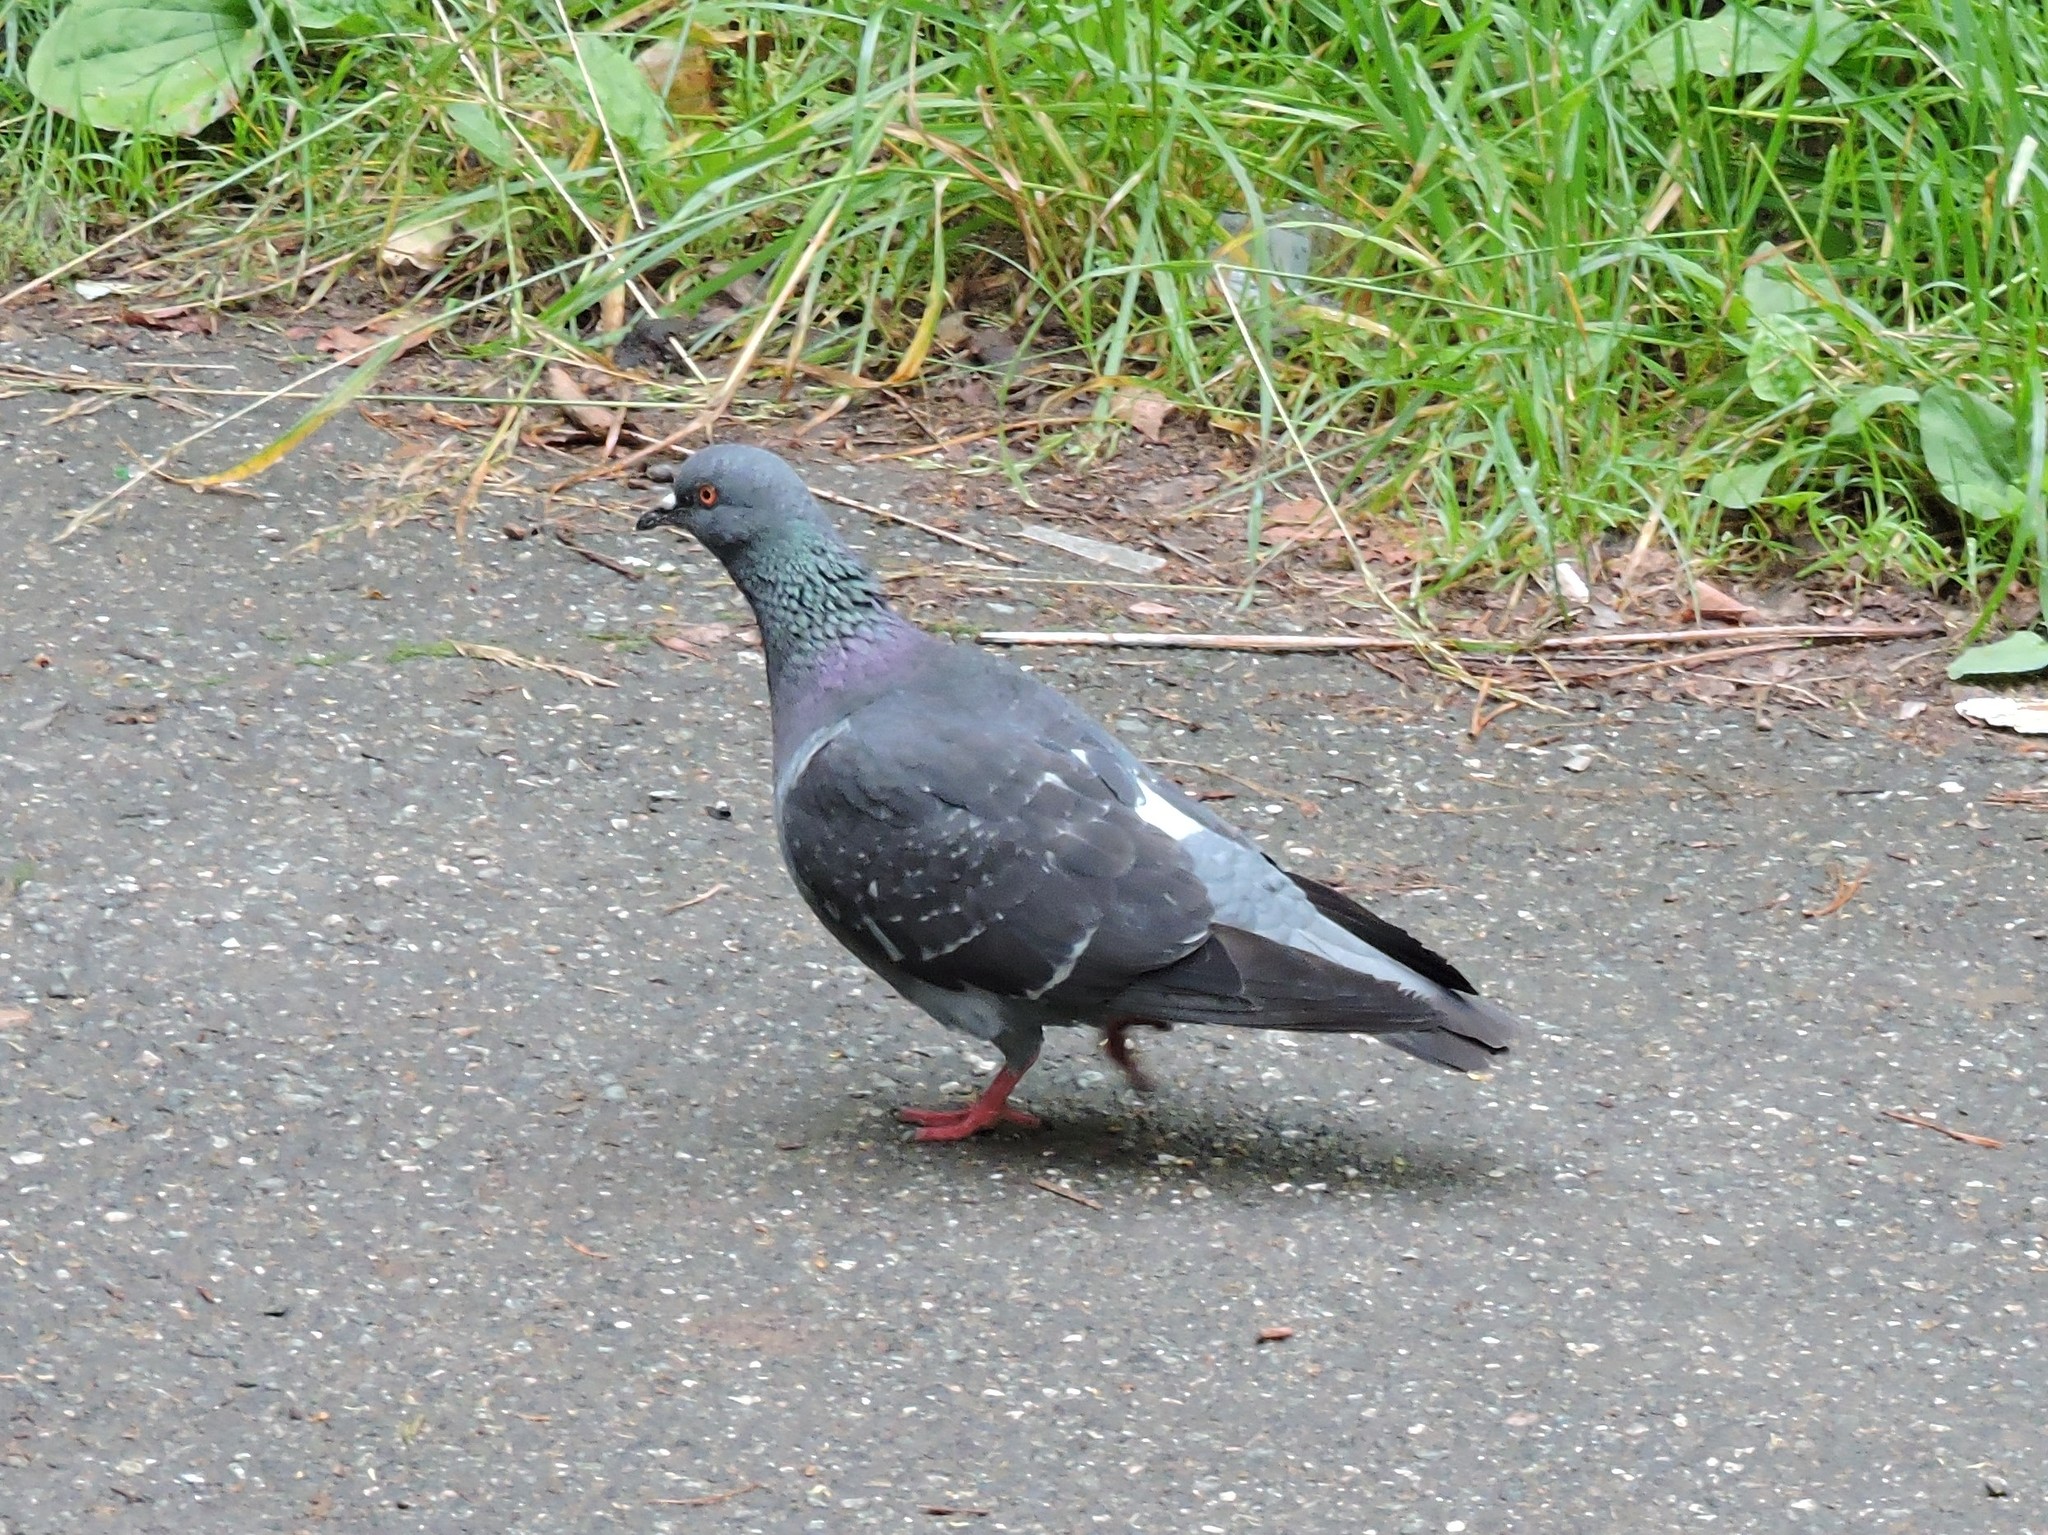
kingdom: Animalia
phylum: Chordata
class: Aves
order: Columbiformes
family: Columbidae
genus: Columba
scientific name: Columba livia
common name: Rock pigeon
